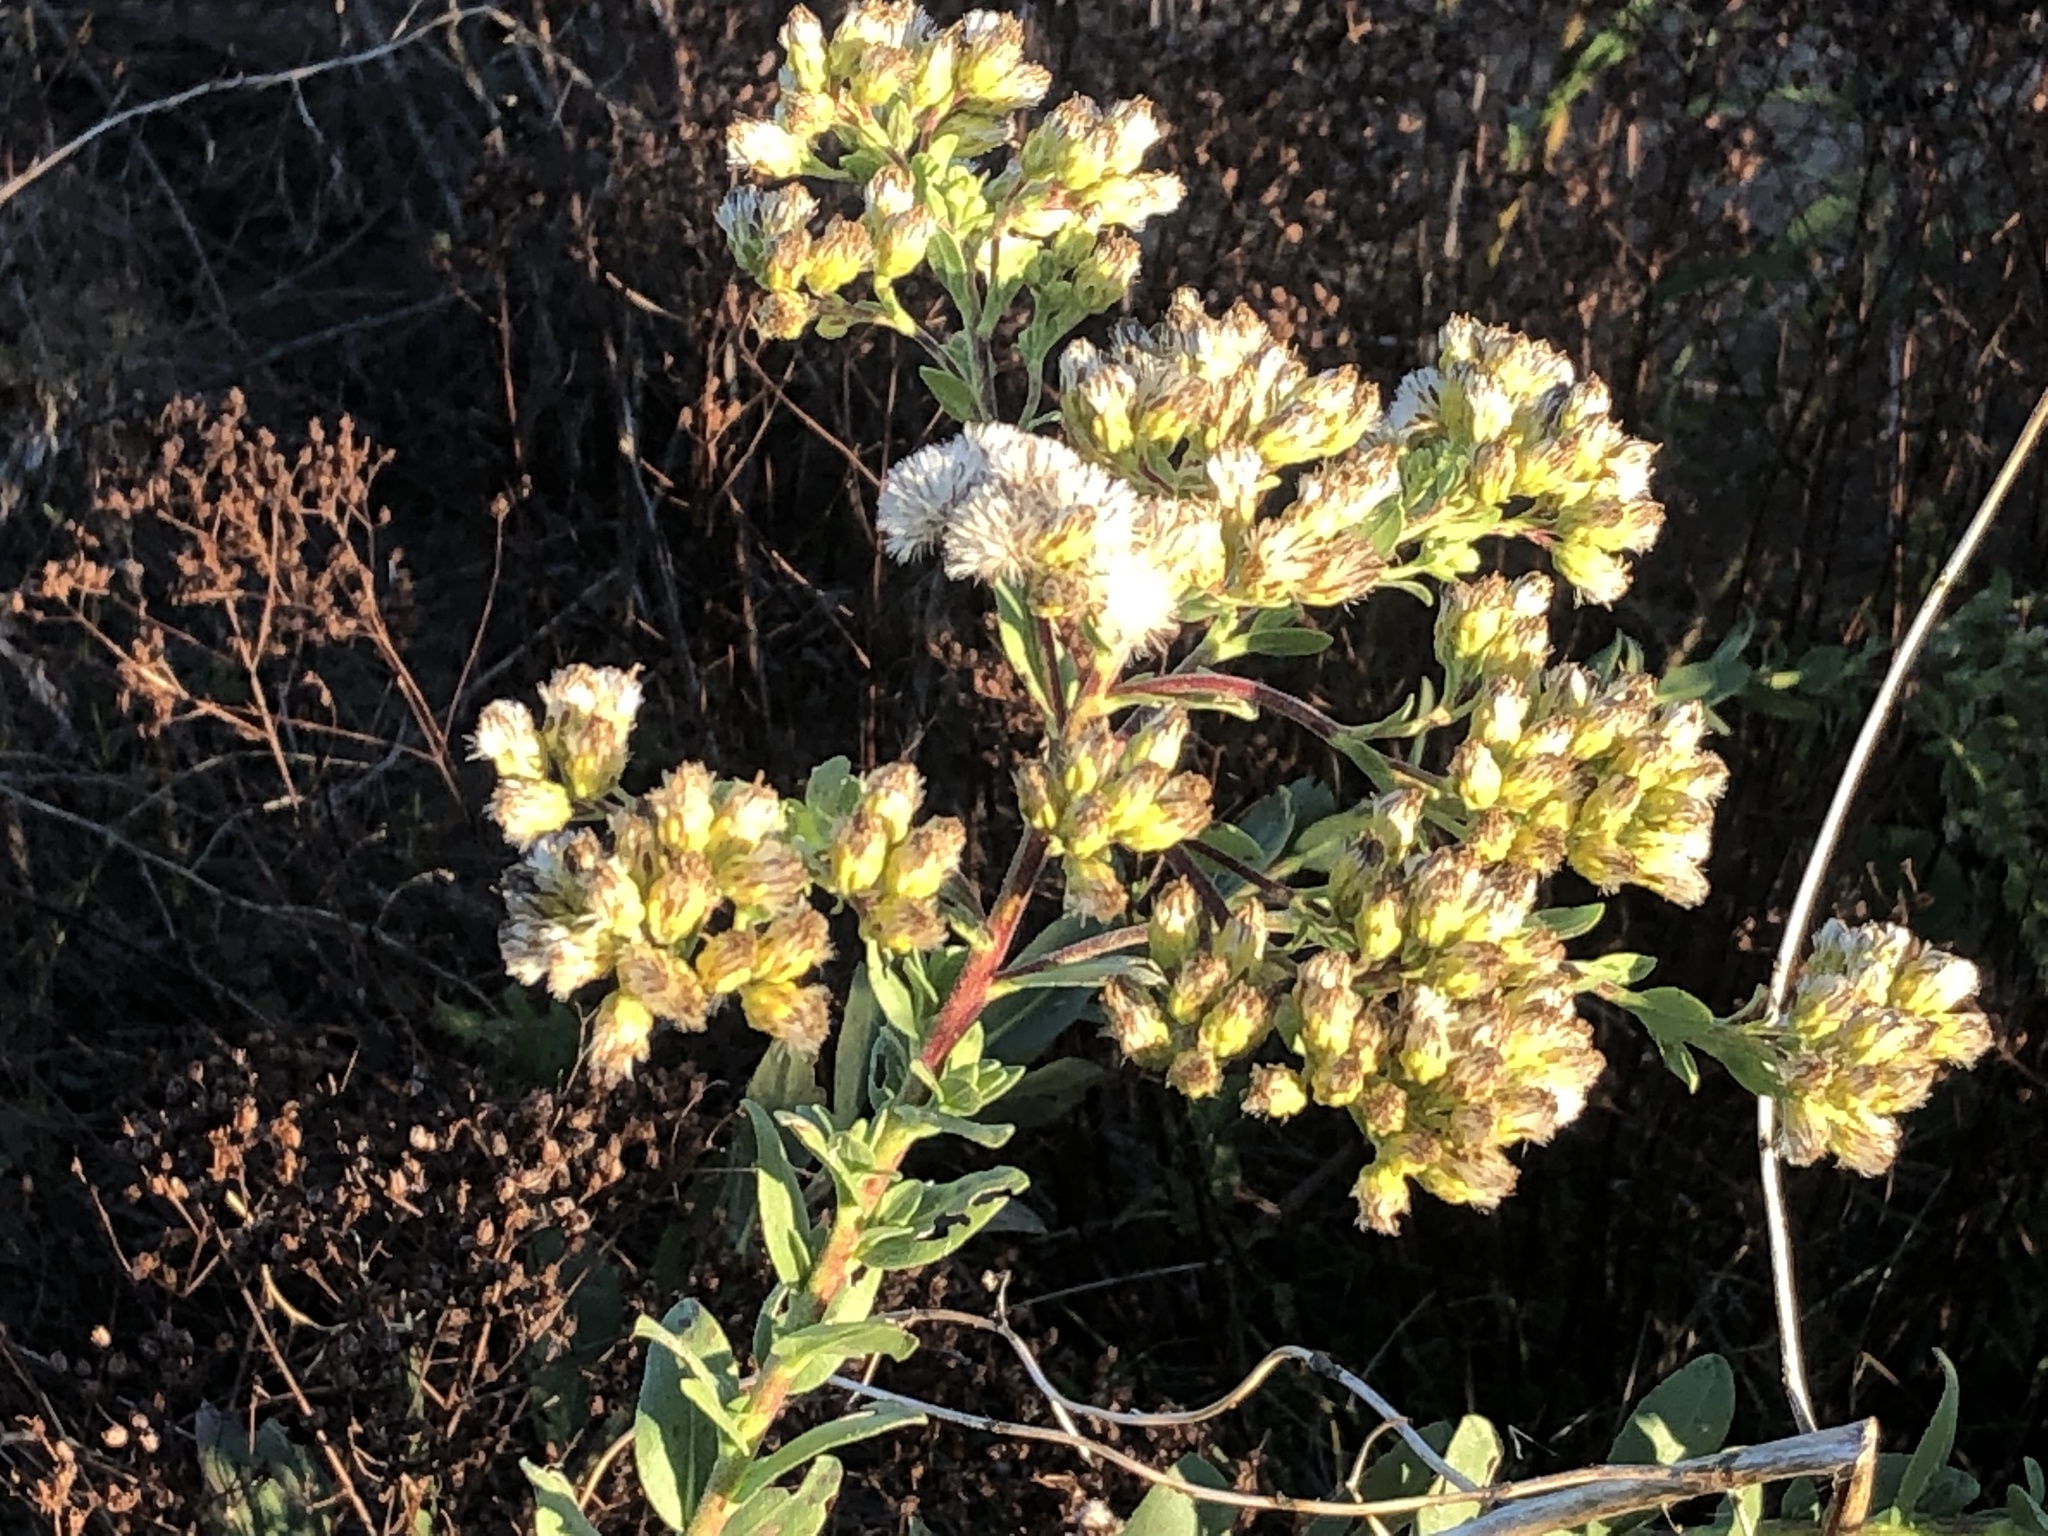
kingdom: Plantae
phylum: Tracheophyta
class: Magnoliopsida
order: Asterales
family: Asteraceae
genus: Solidago
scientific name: Solidago rigida
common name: Rigid goldenrod
